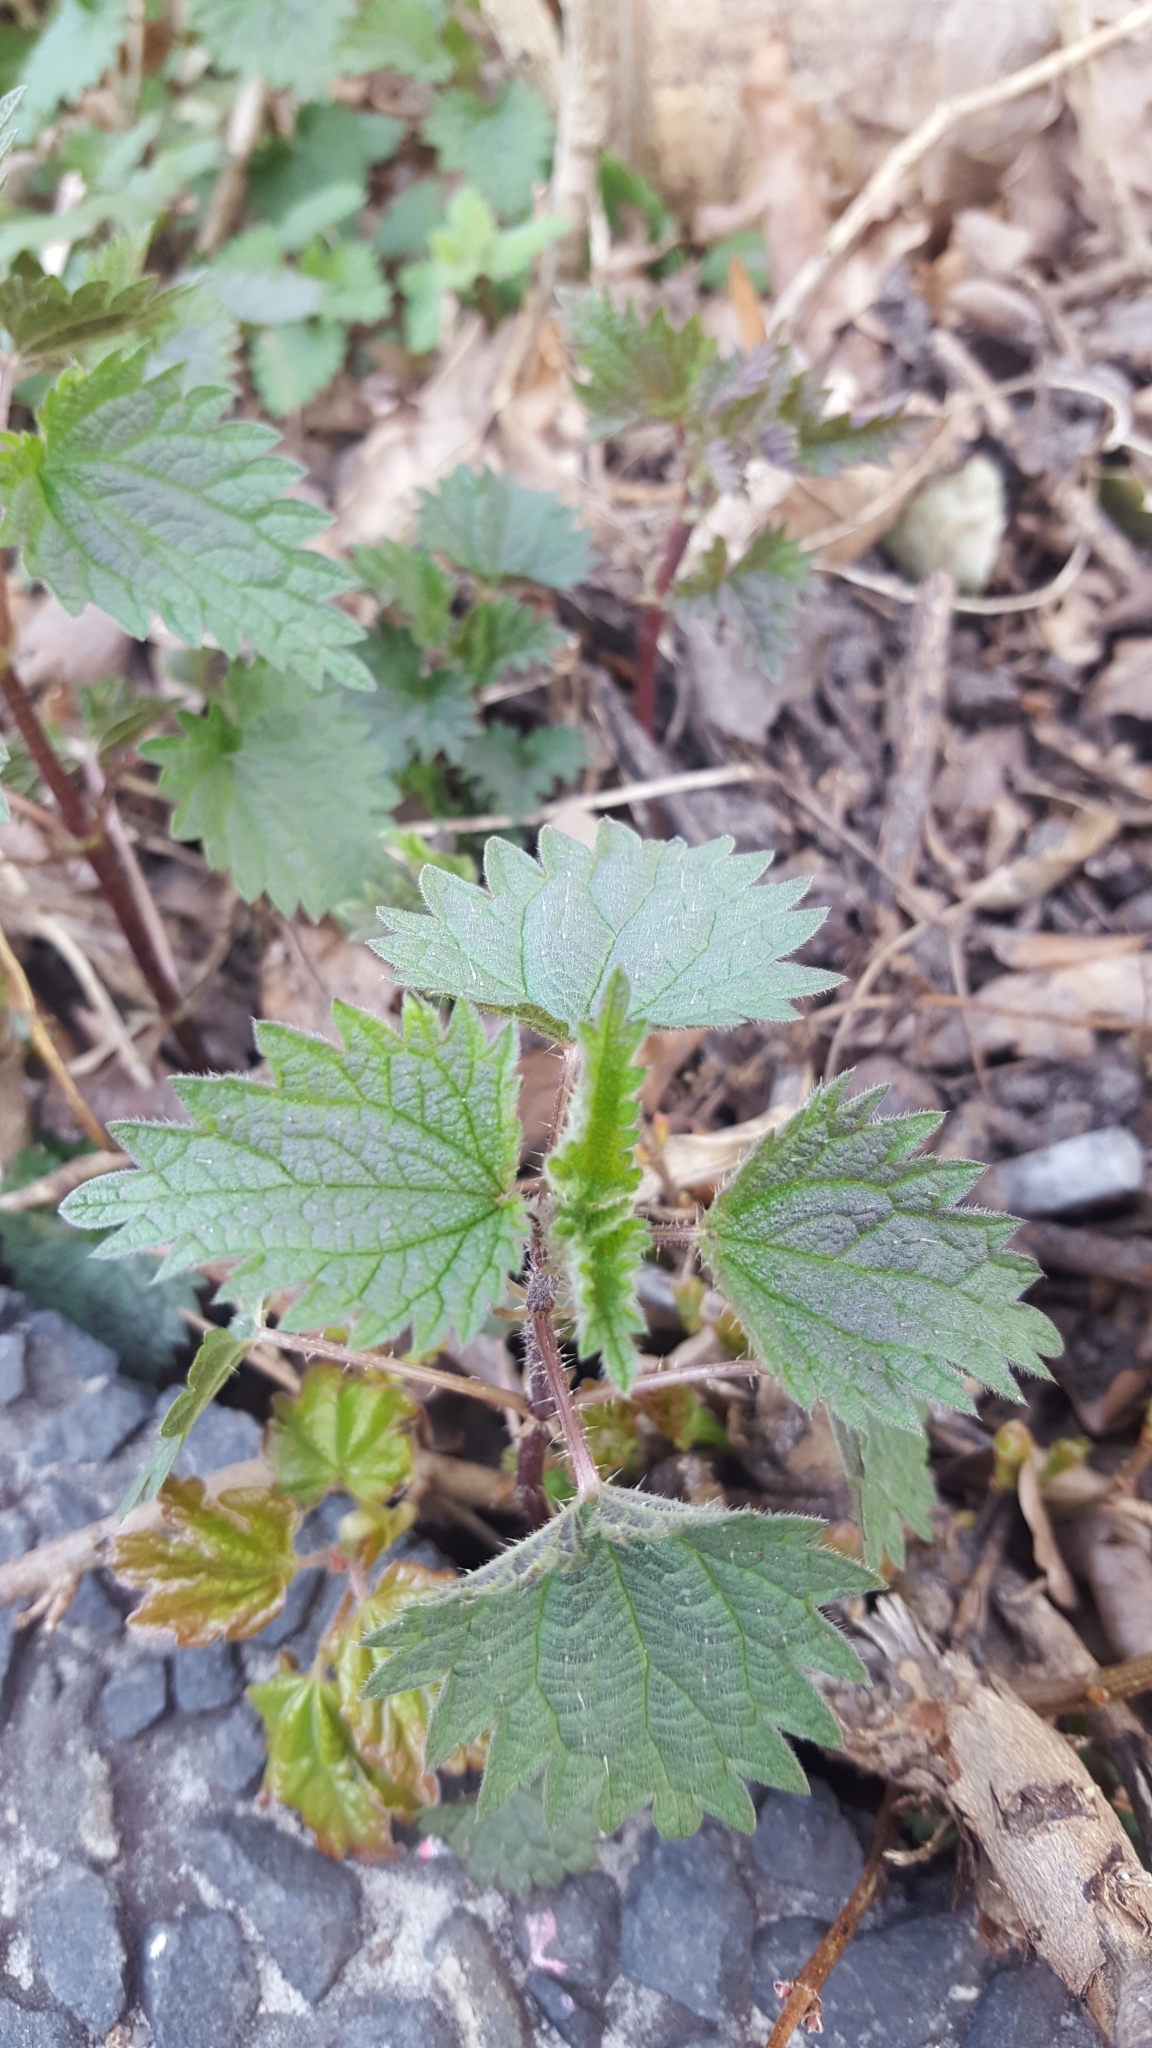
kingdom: Plantae
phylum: Tracheophyta
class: Magnoliopsida
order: Rosales
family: Urticaceae
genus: Urtica
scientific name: Urtica dioica
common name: Common nettle
